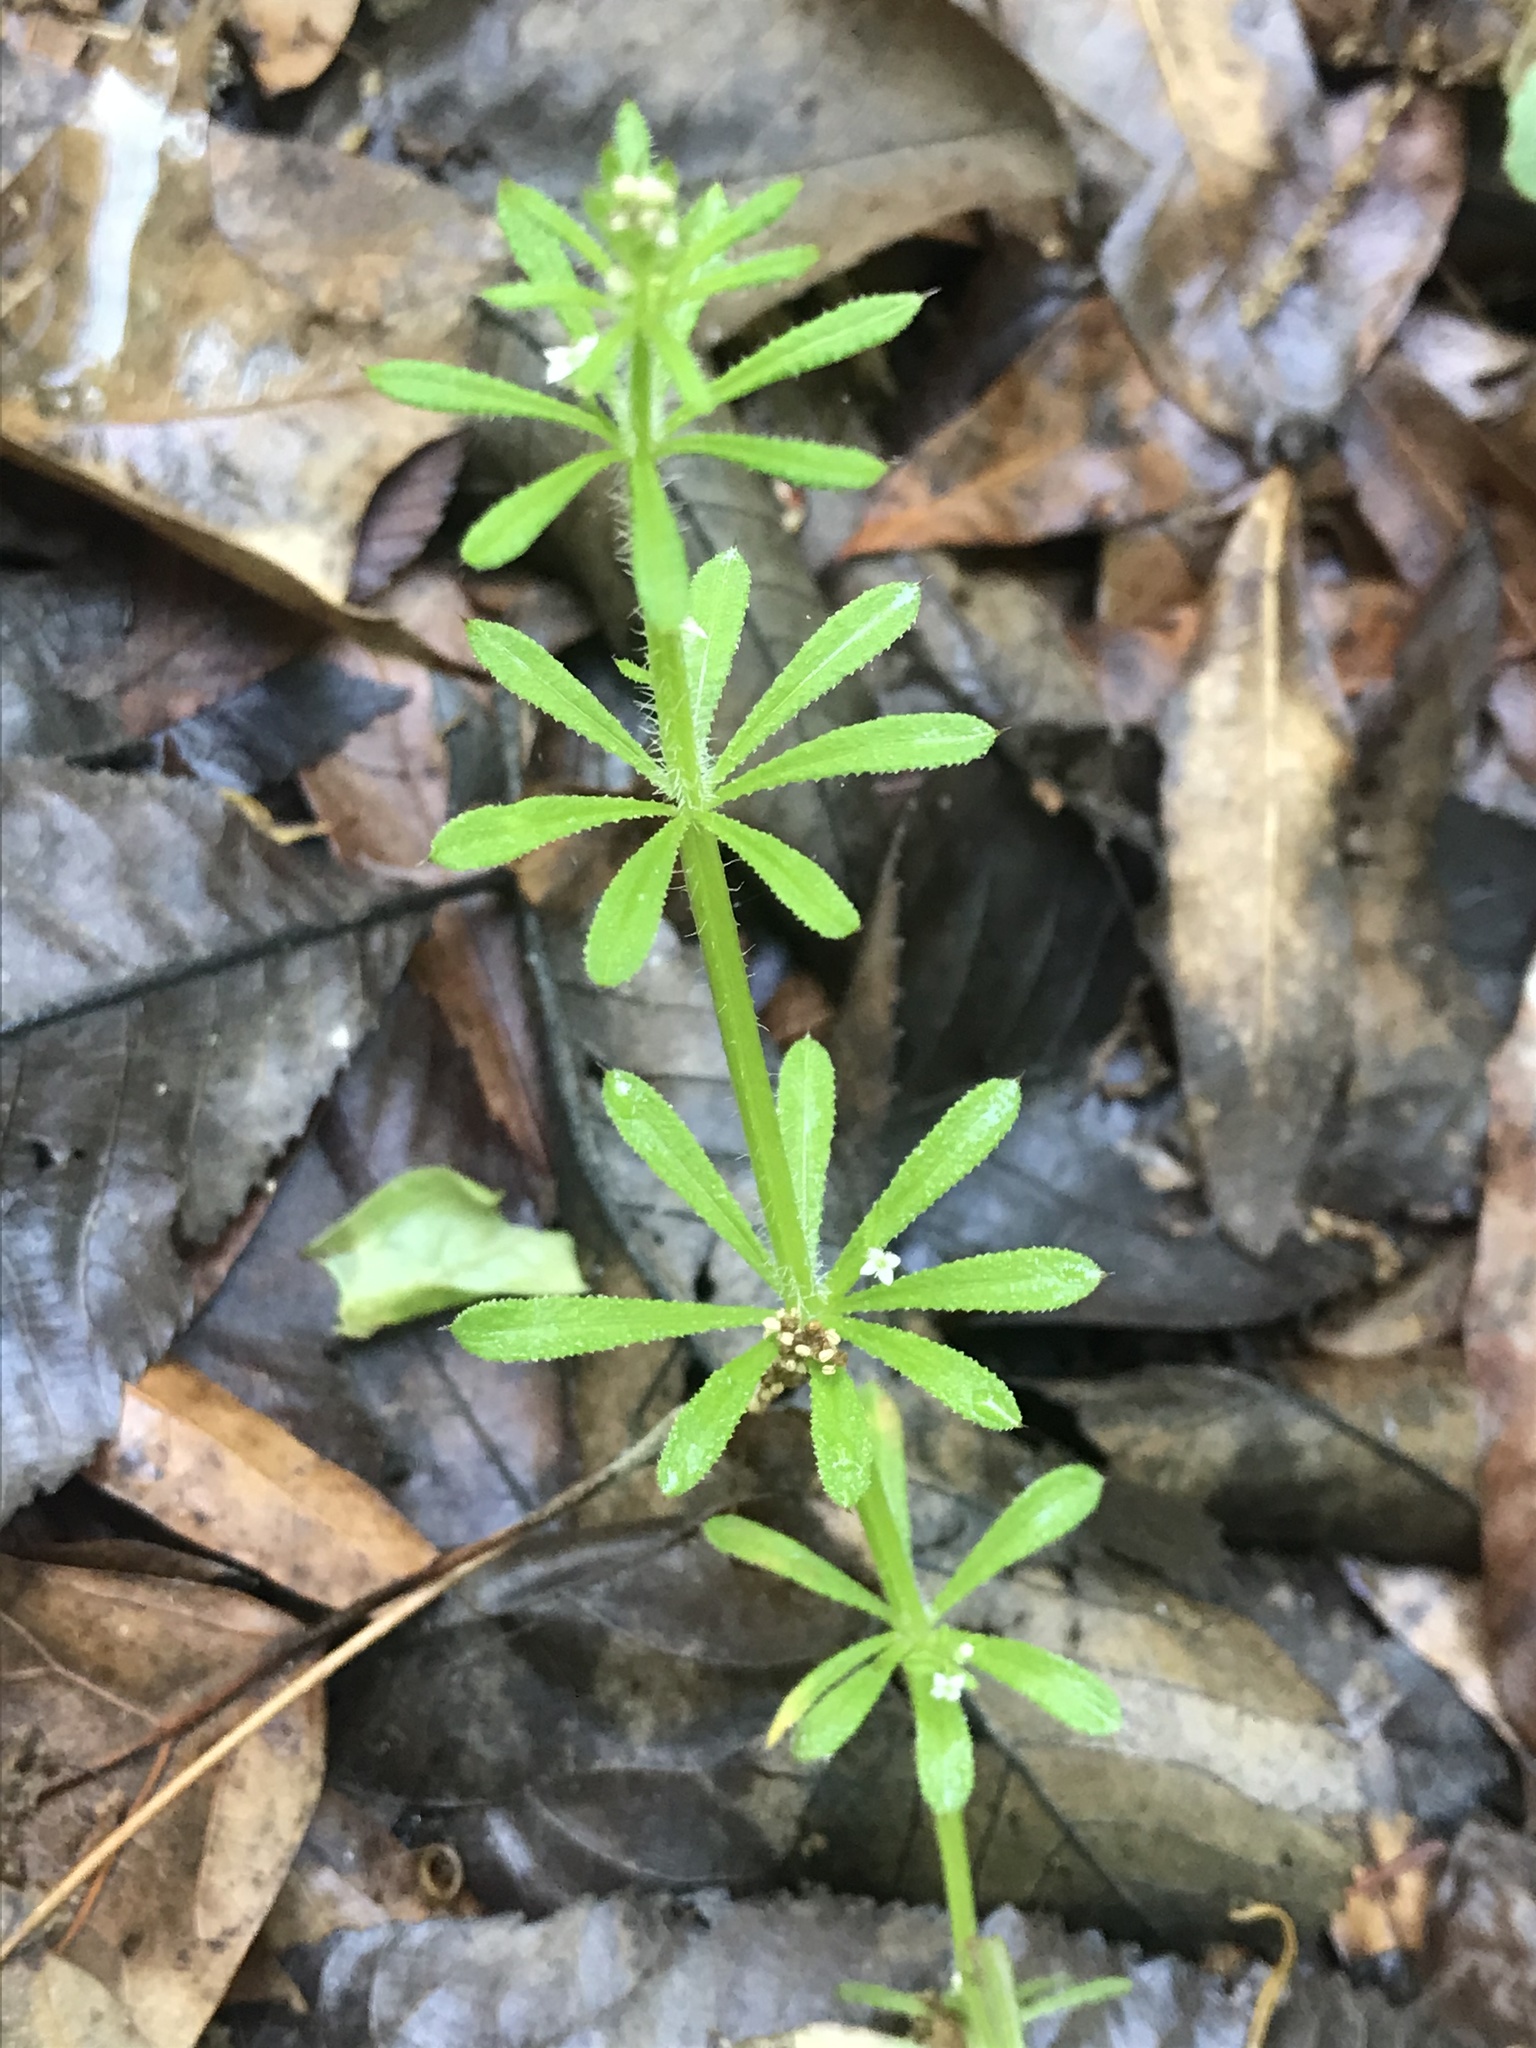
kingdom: Plantae
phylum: Tracheophyta
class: Magnoliopsida
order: Gentianales
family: Rubiaceae
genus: Galium
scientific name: Galium aparine
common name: Cleavers
